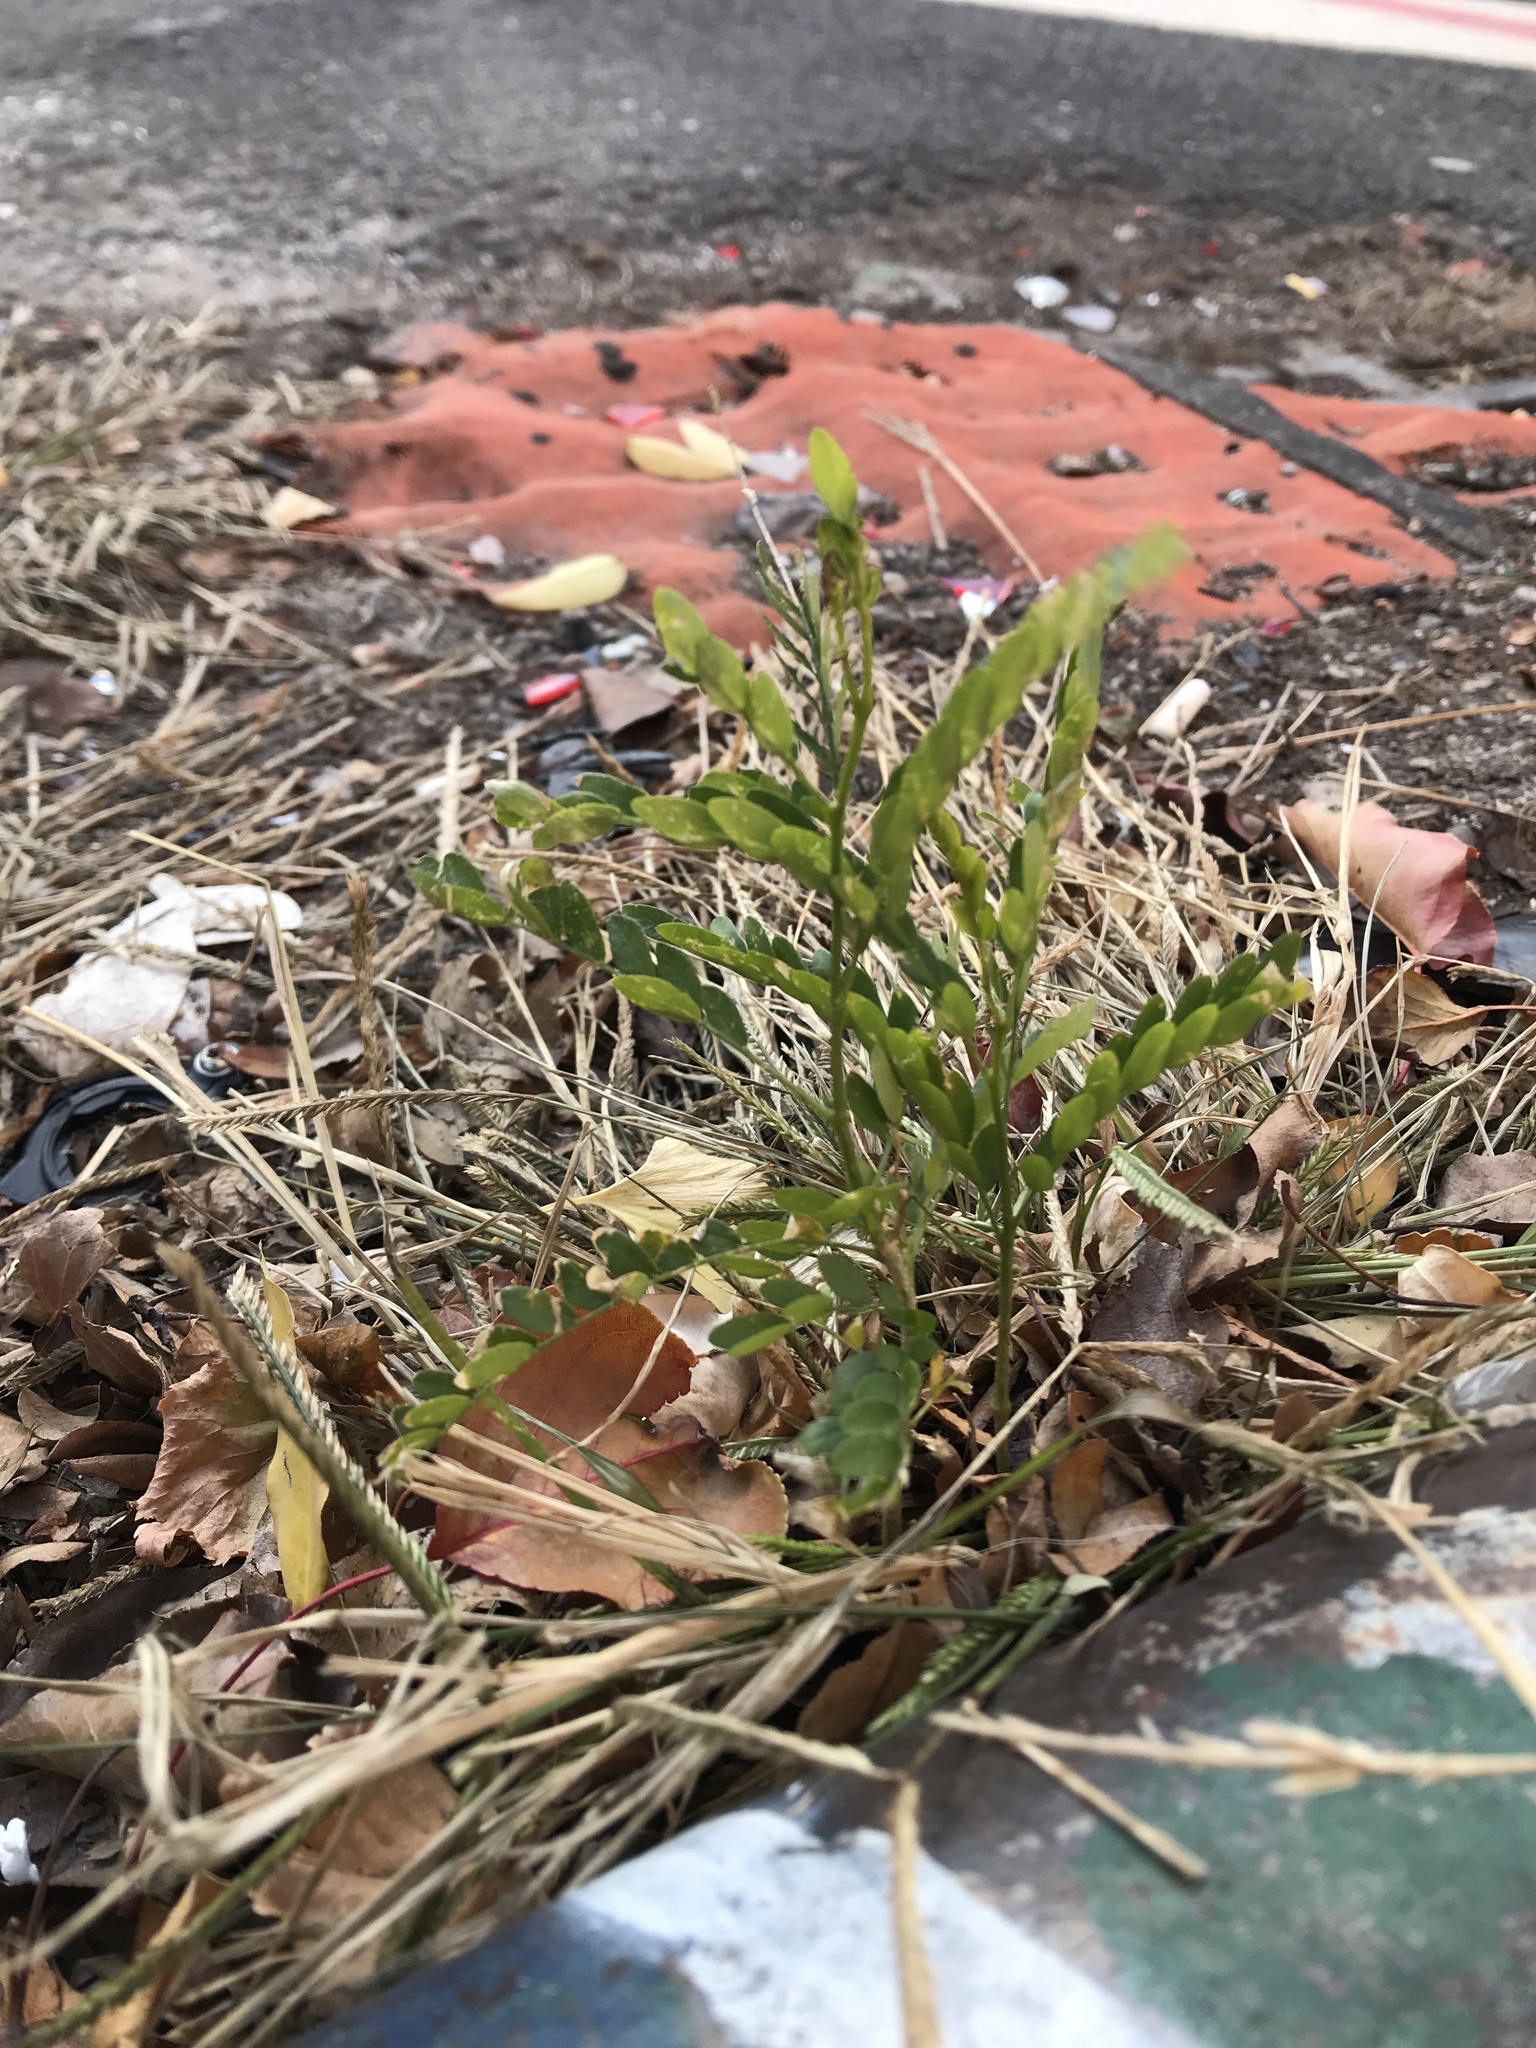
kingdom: Plantae
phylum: Tracheophyta
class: Magnoliopsida
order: Fabales
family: Fabaceae
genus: Gleditsia
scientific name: Gleditsia triacanthos
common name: Common honeylocust
